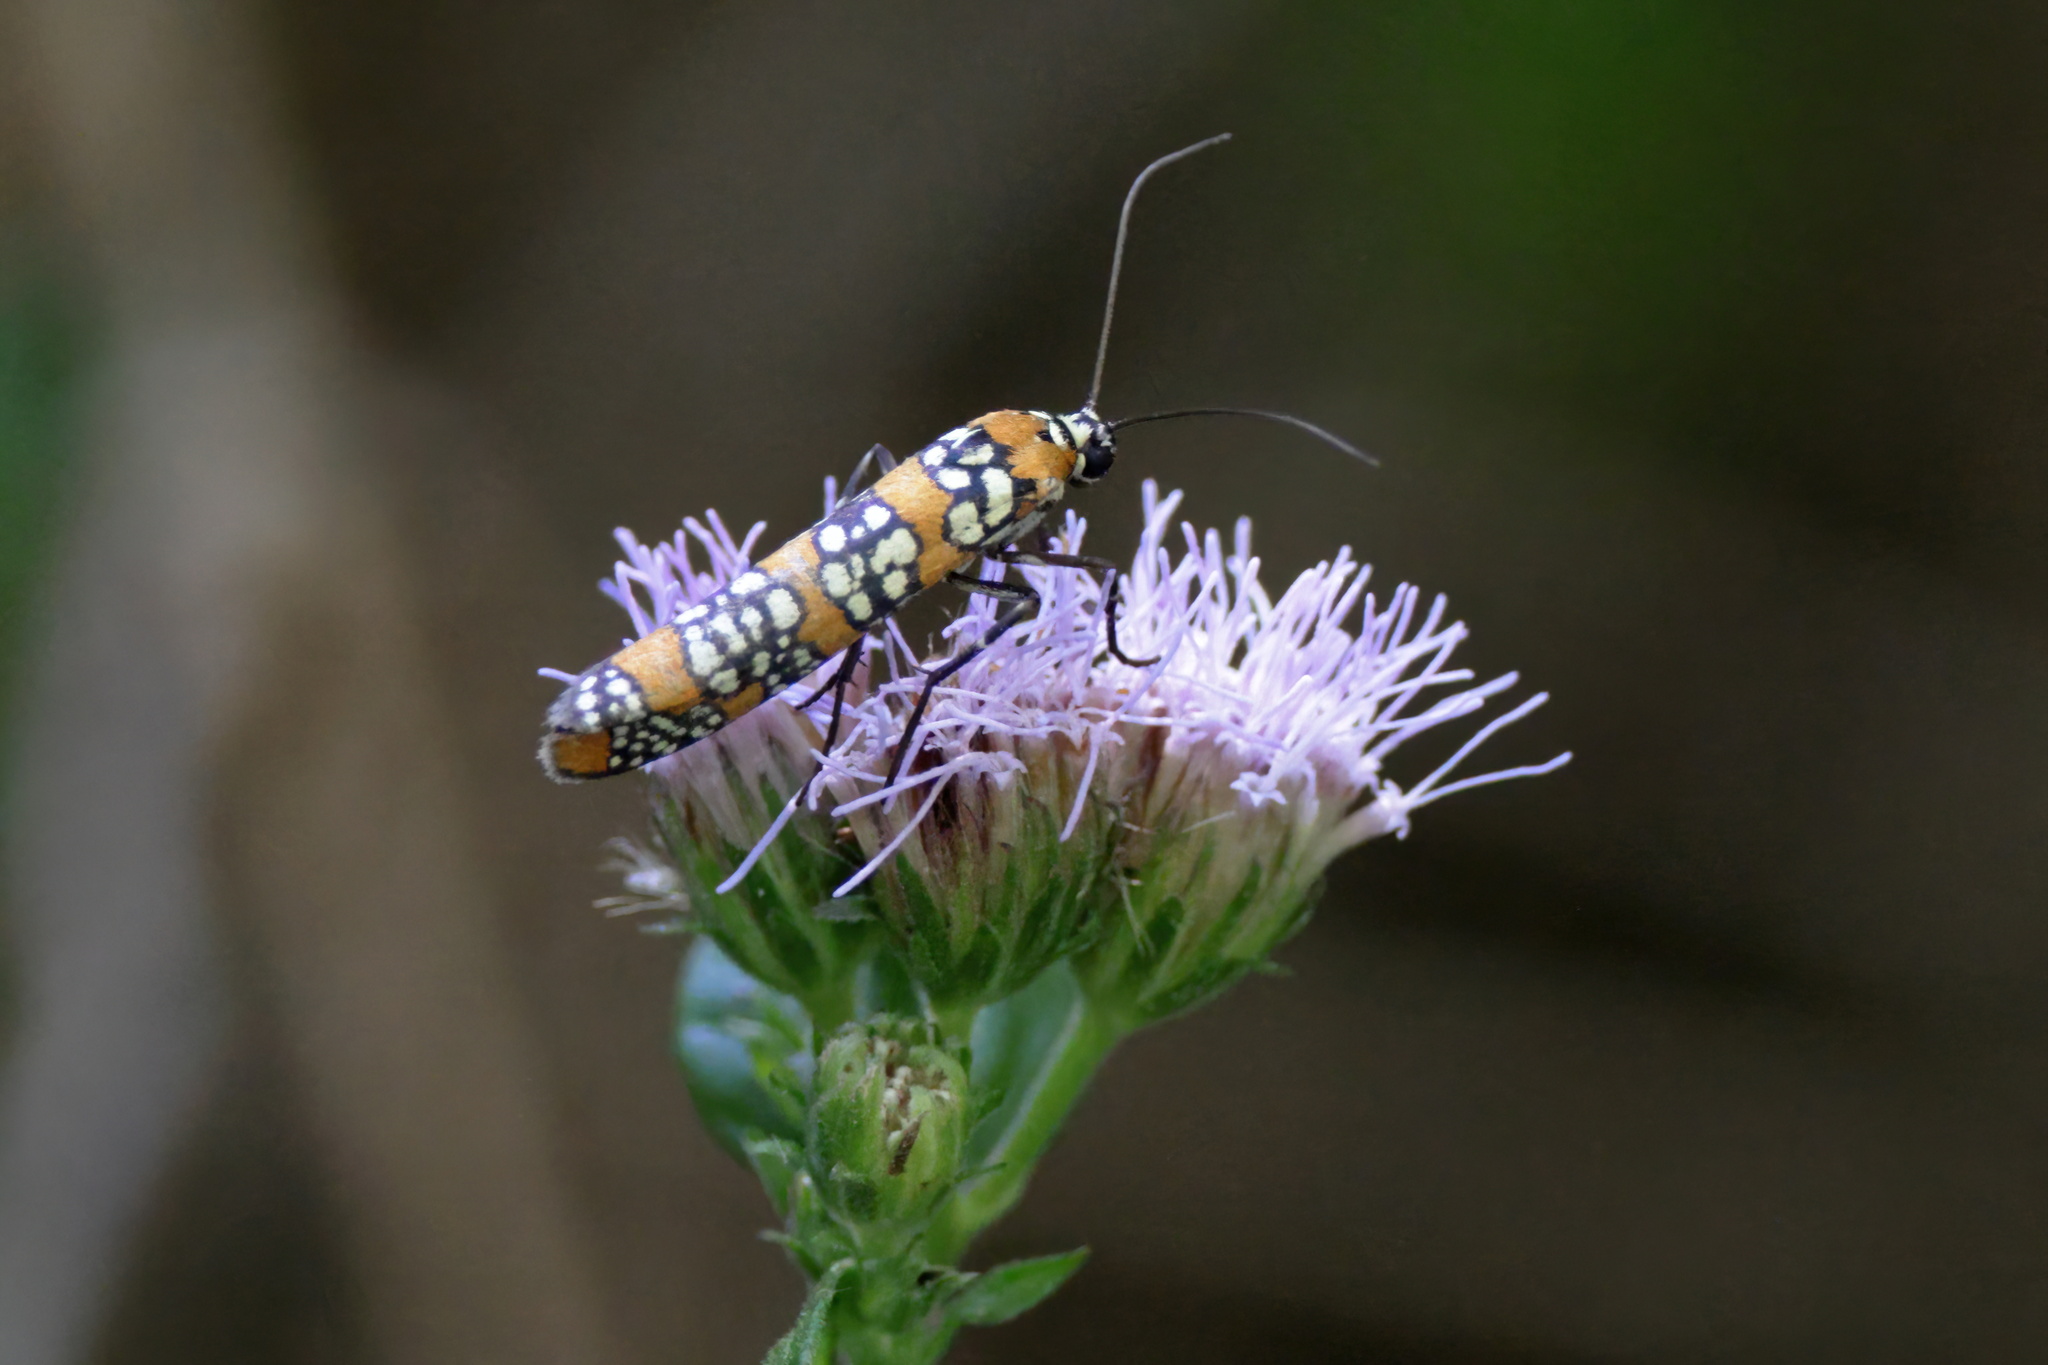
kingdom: Animalia
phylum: Arthropoda
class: Insecta
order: Lepidoptera
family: Attevidae
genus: Atteva
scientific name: Atteva punctella
